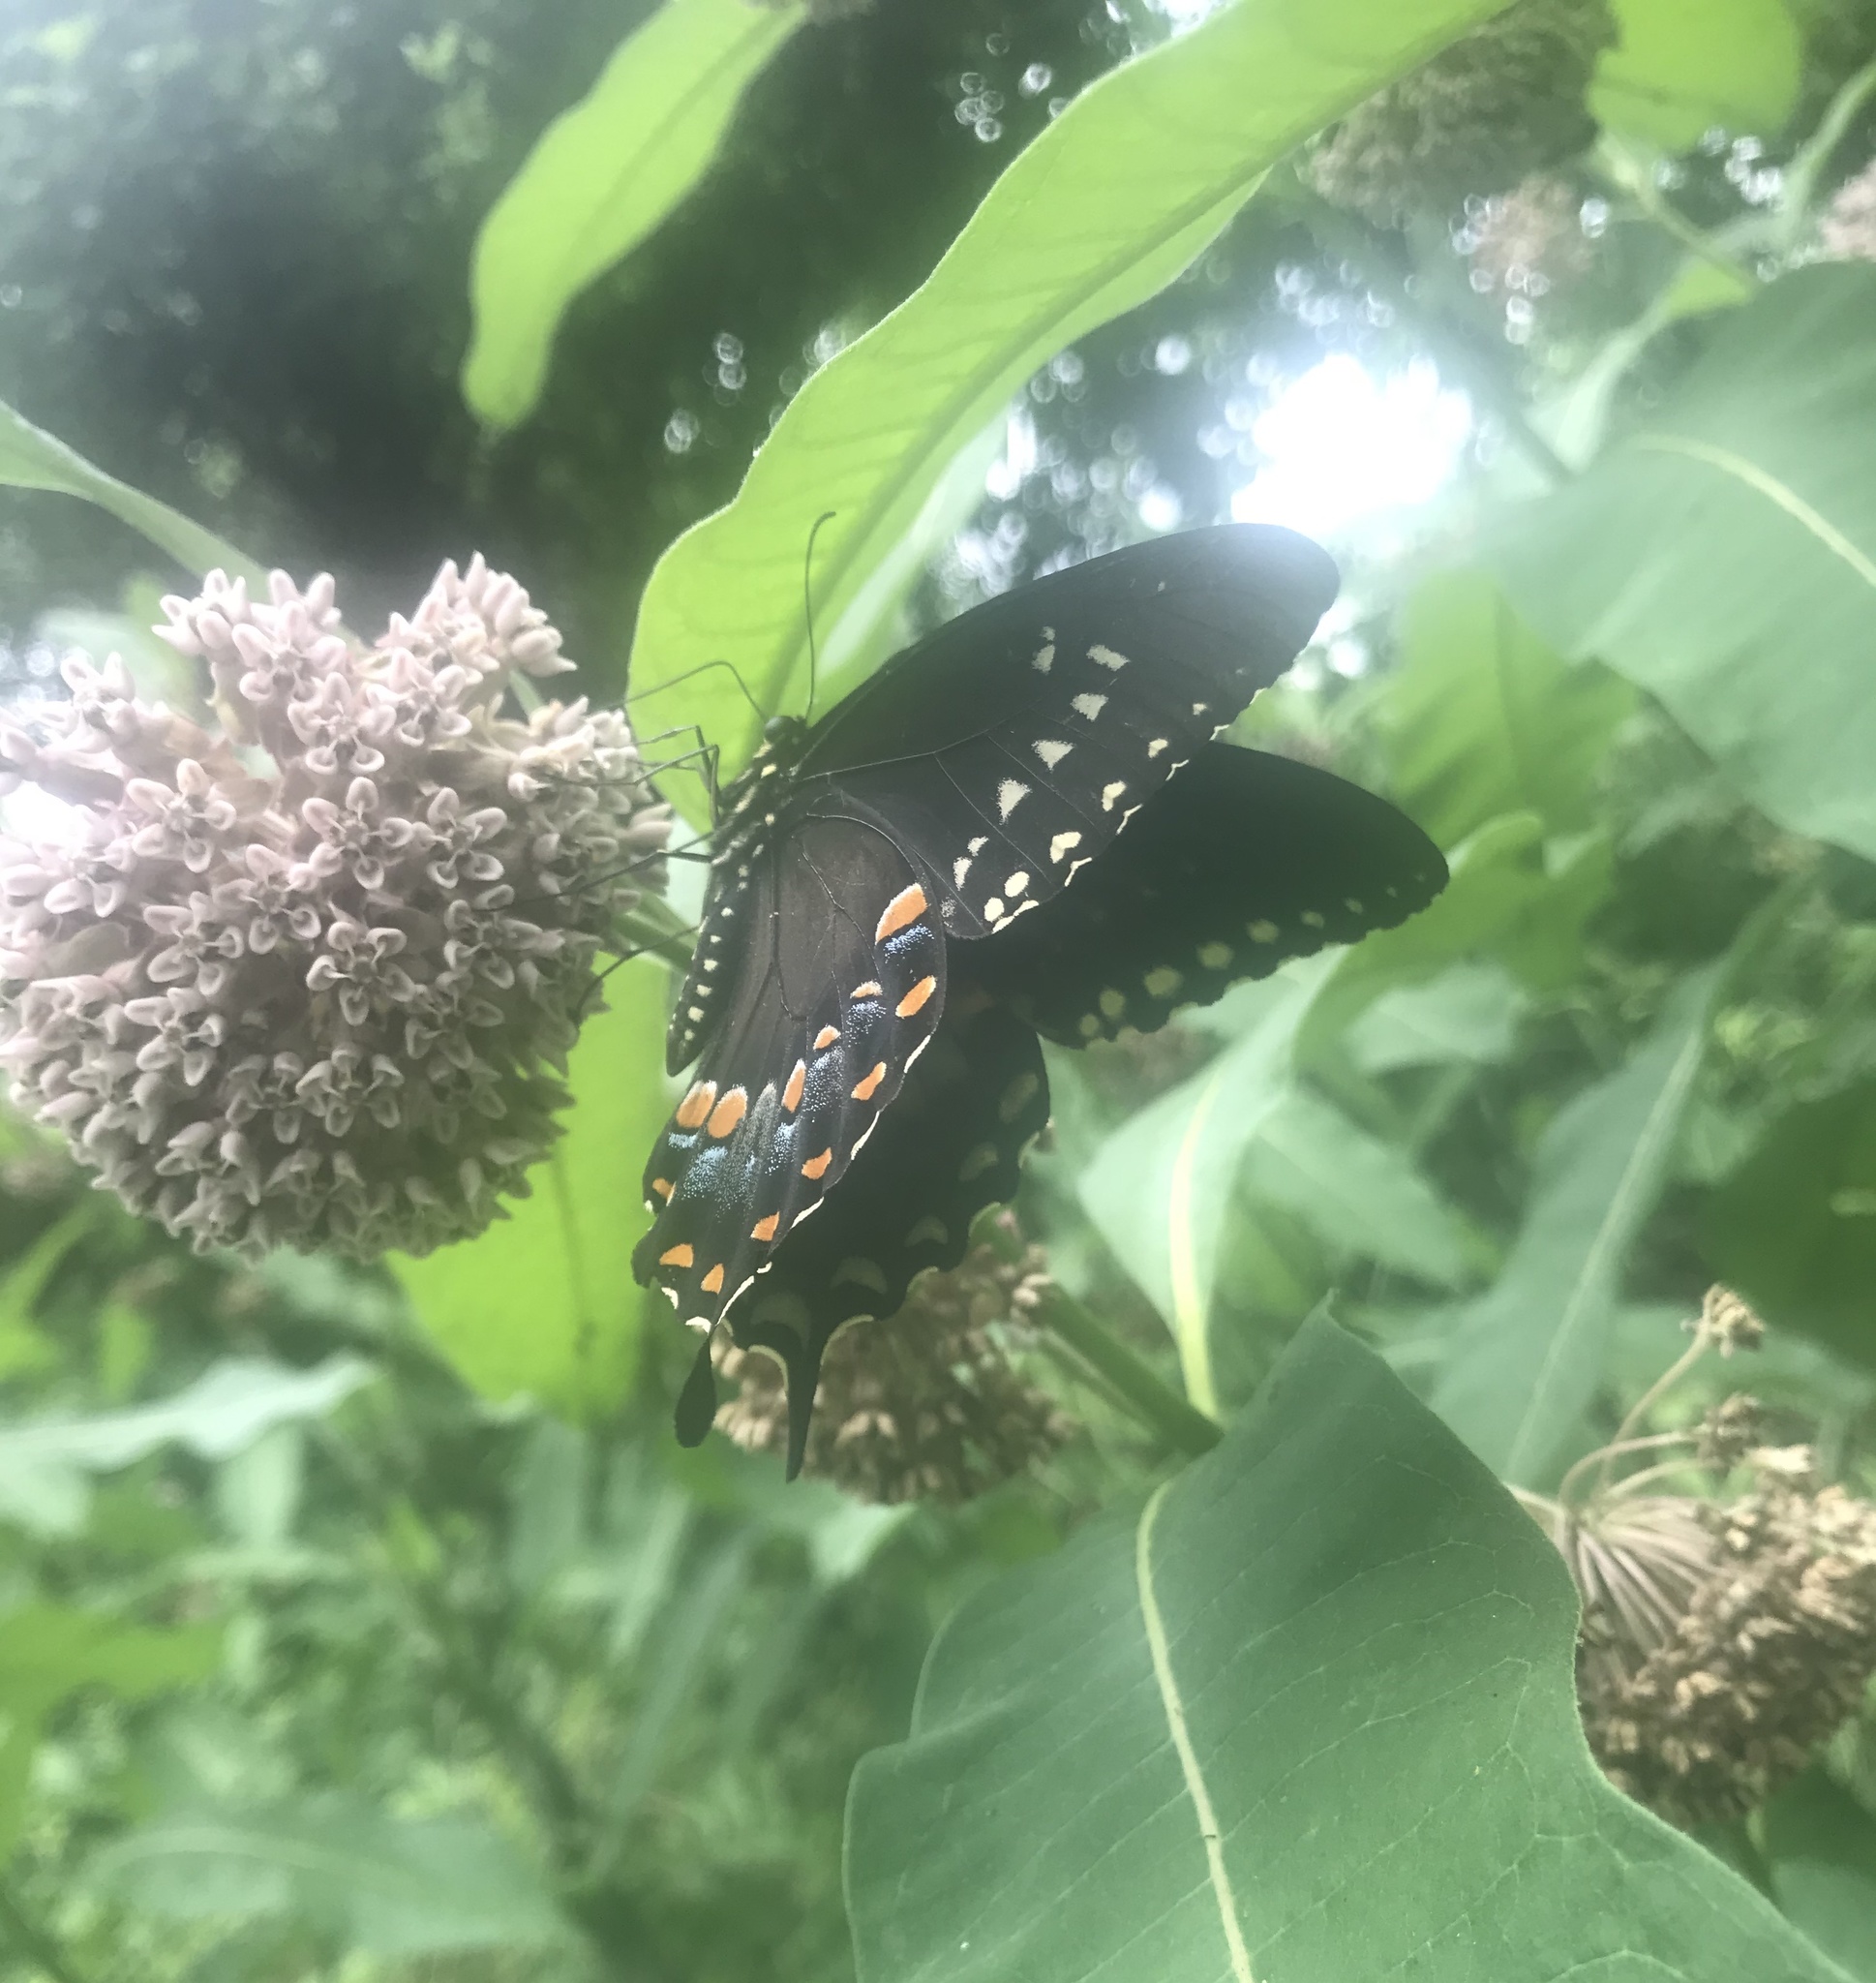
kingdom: Animalia
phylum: Arthropoda
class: Insecta
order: Lepidoptera
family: Papilionidae
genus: Papilio
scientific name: Papilio troilus
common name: Spicebush swallowtail
